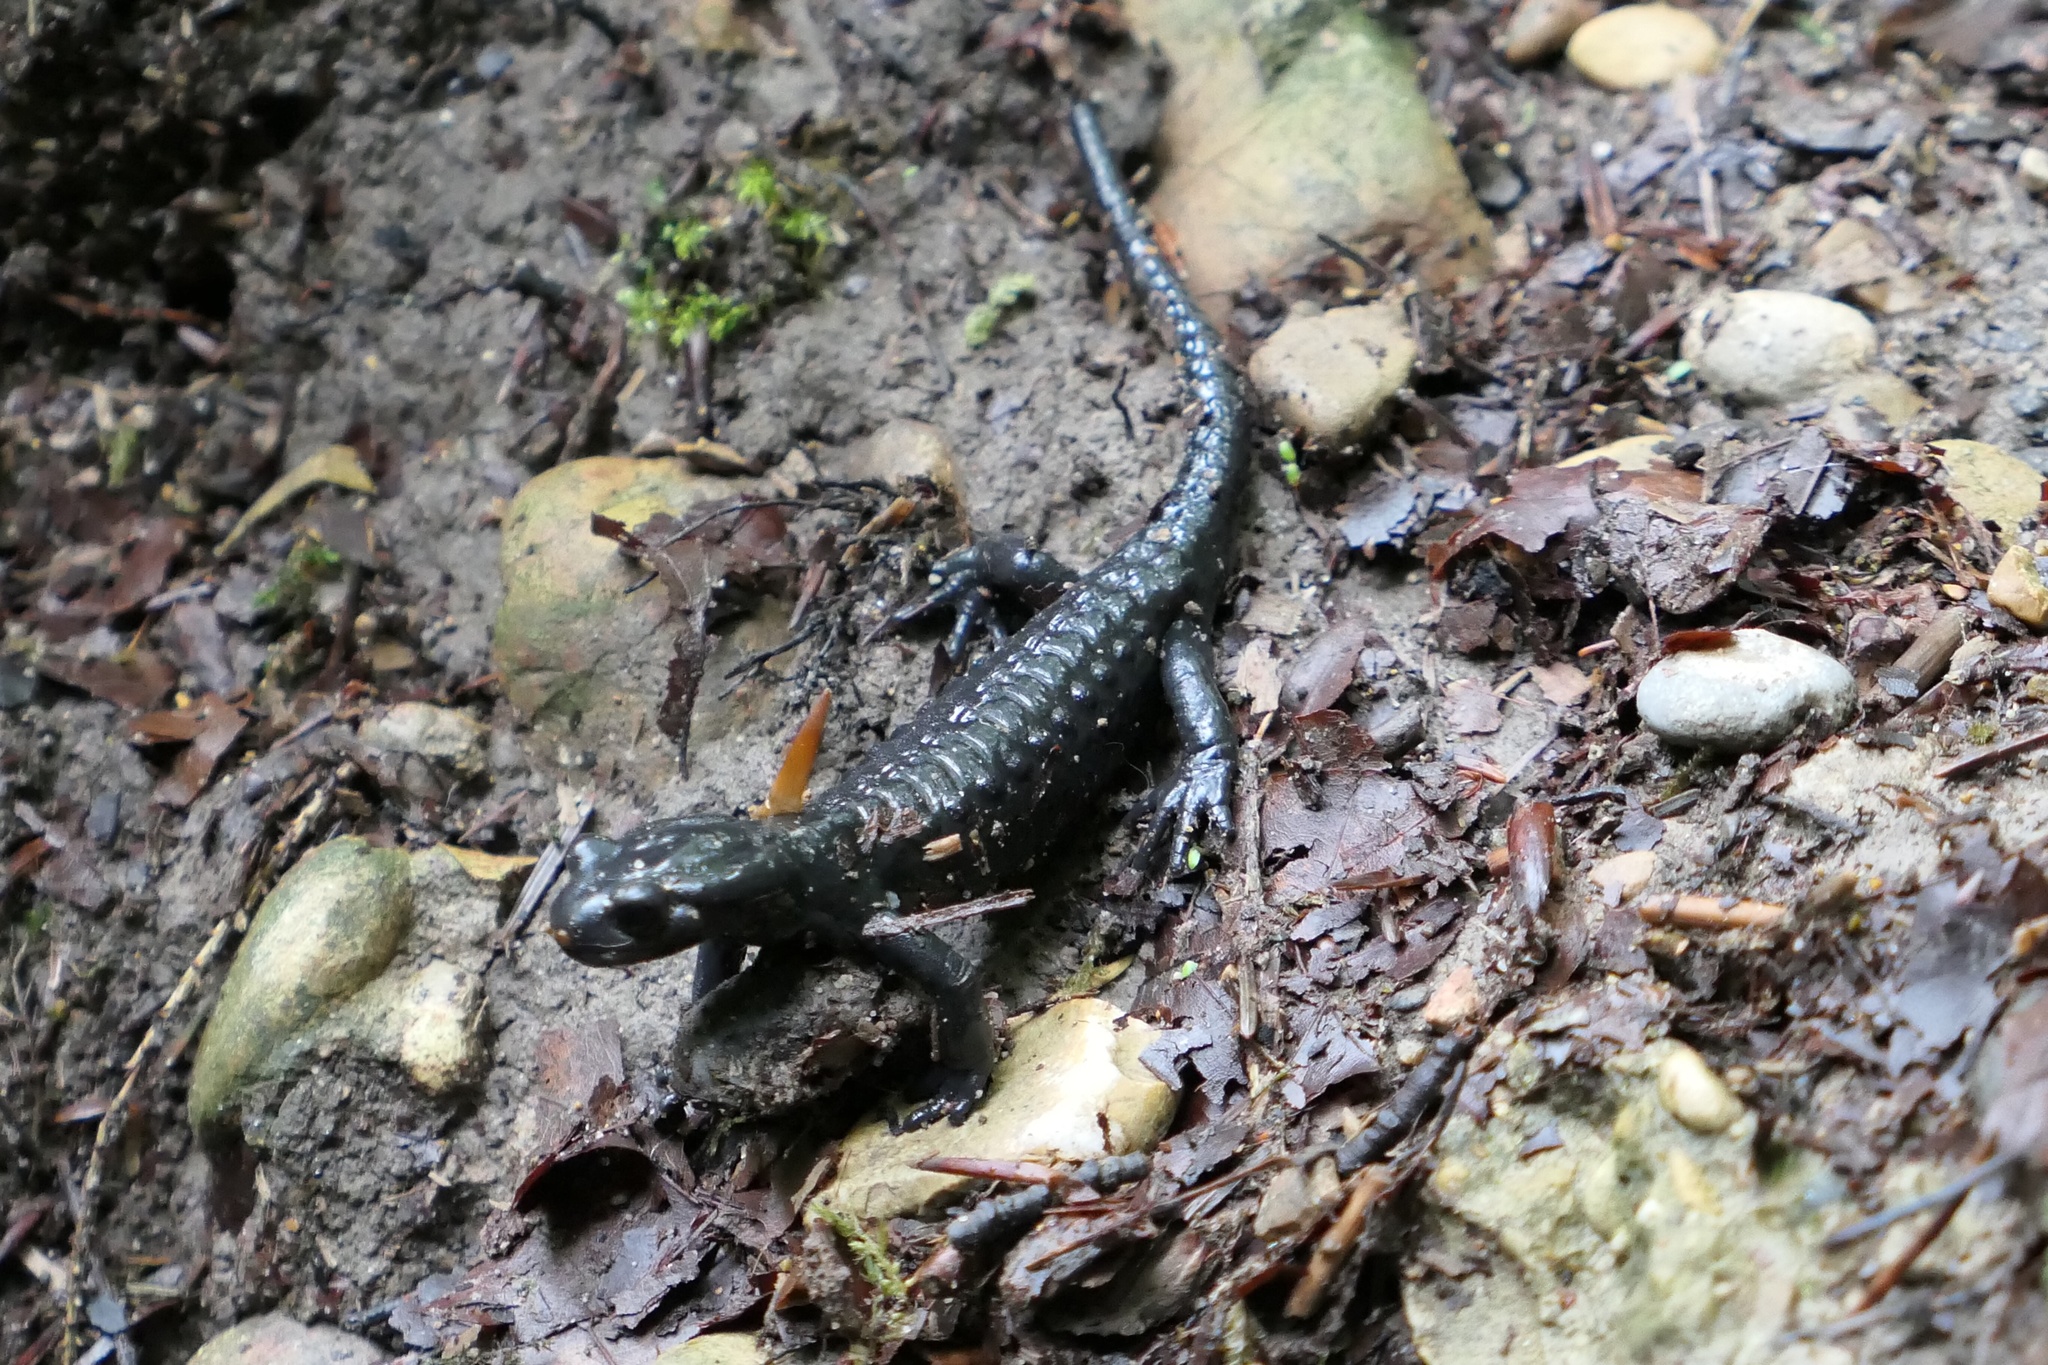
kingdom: Animalia
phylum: Chordata
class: Amphibia
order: Caudata
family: Salamandridae
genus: Salamandra
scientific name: Salamandra atra
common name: Alpine salamander
